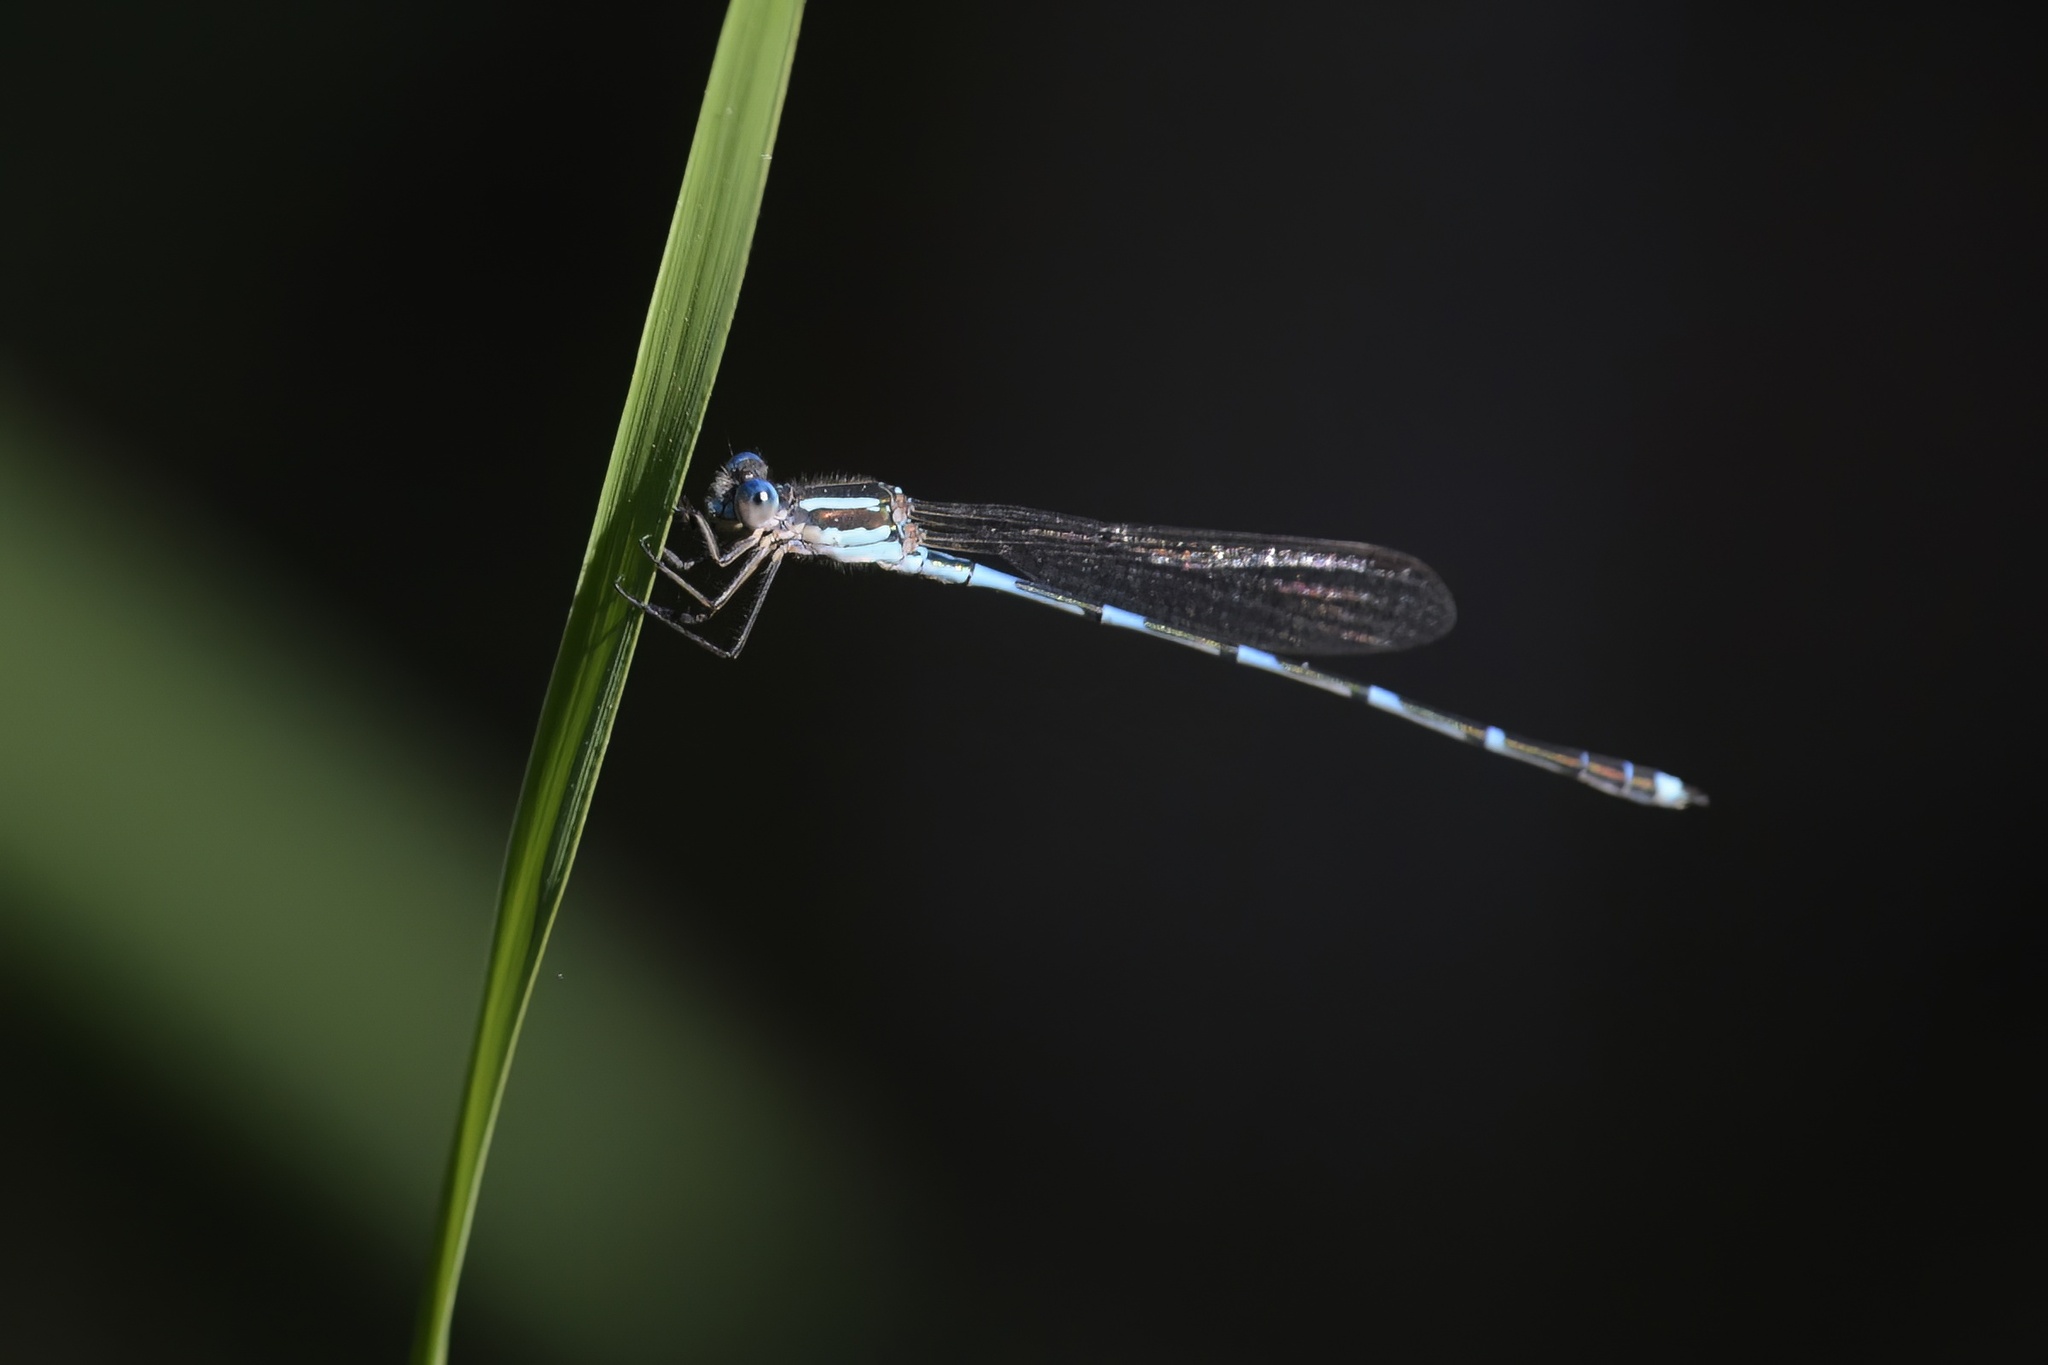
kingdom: Animalia
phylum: Arthropoda
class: Insecta
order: Odonata
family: Lestidae
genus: Austrolestes
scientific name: Austrolestes leda
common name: Wandering ringtail
